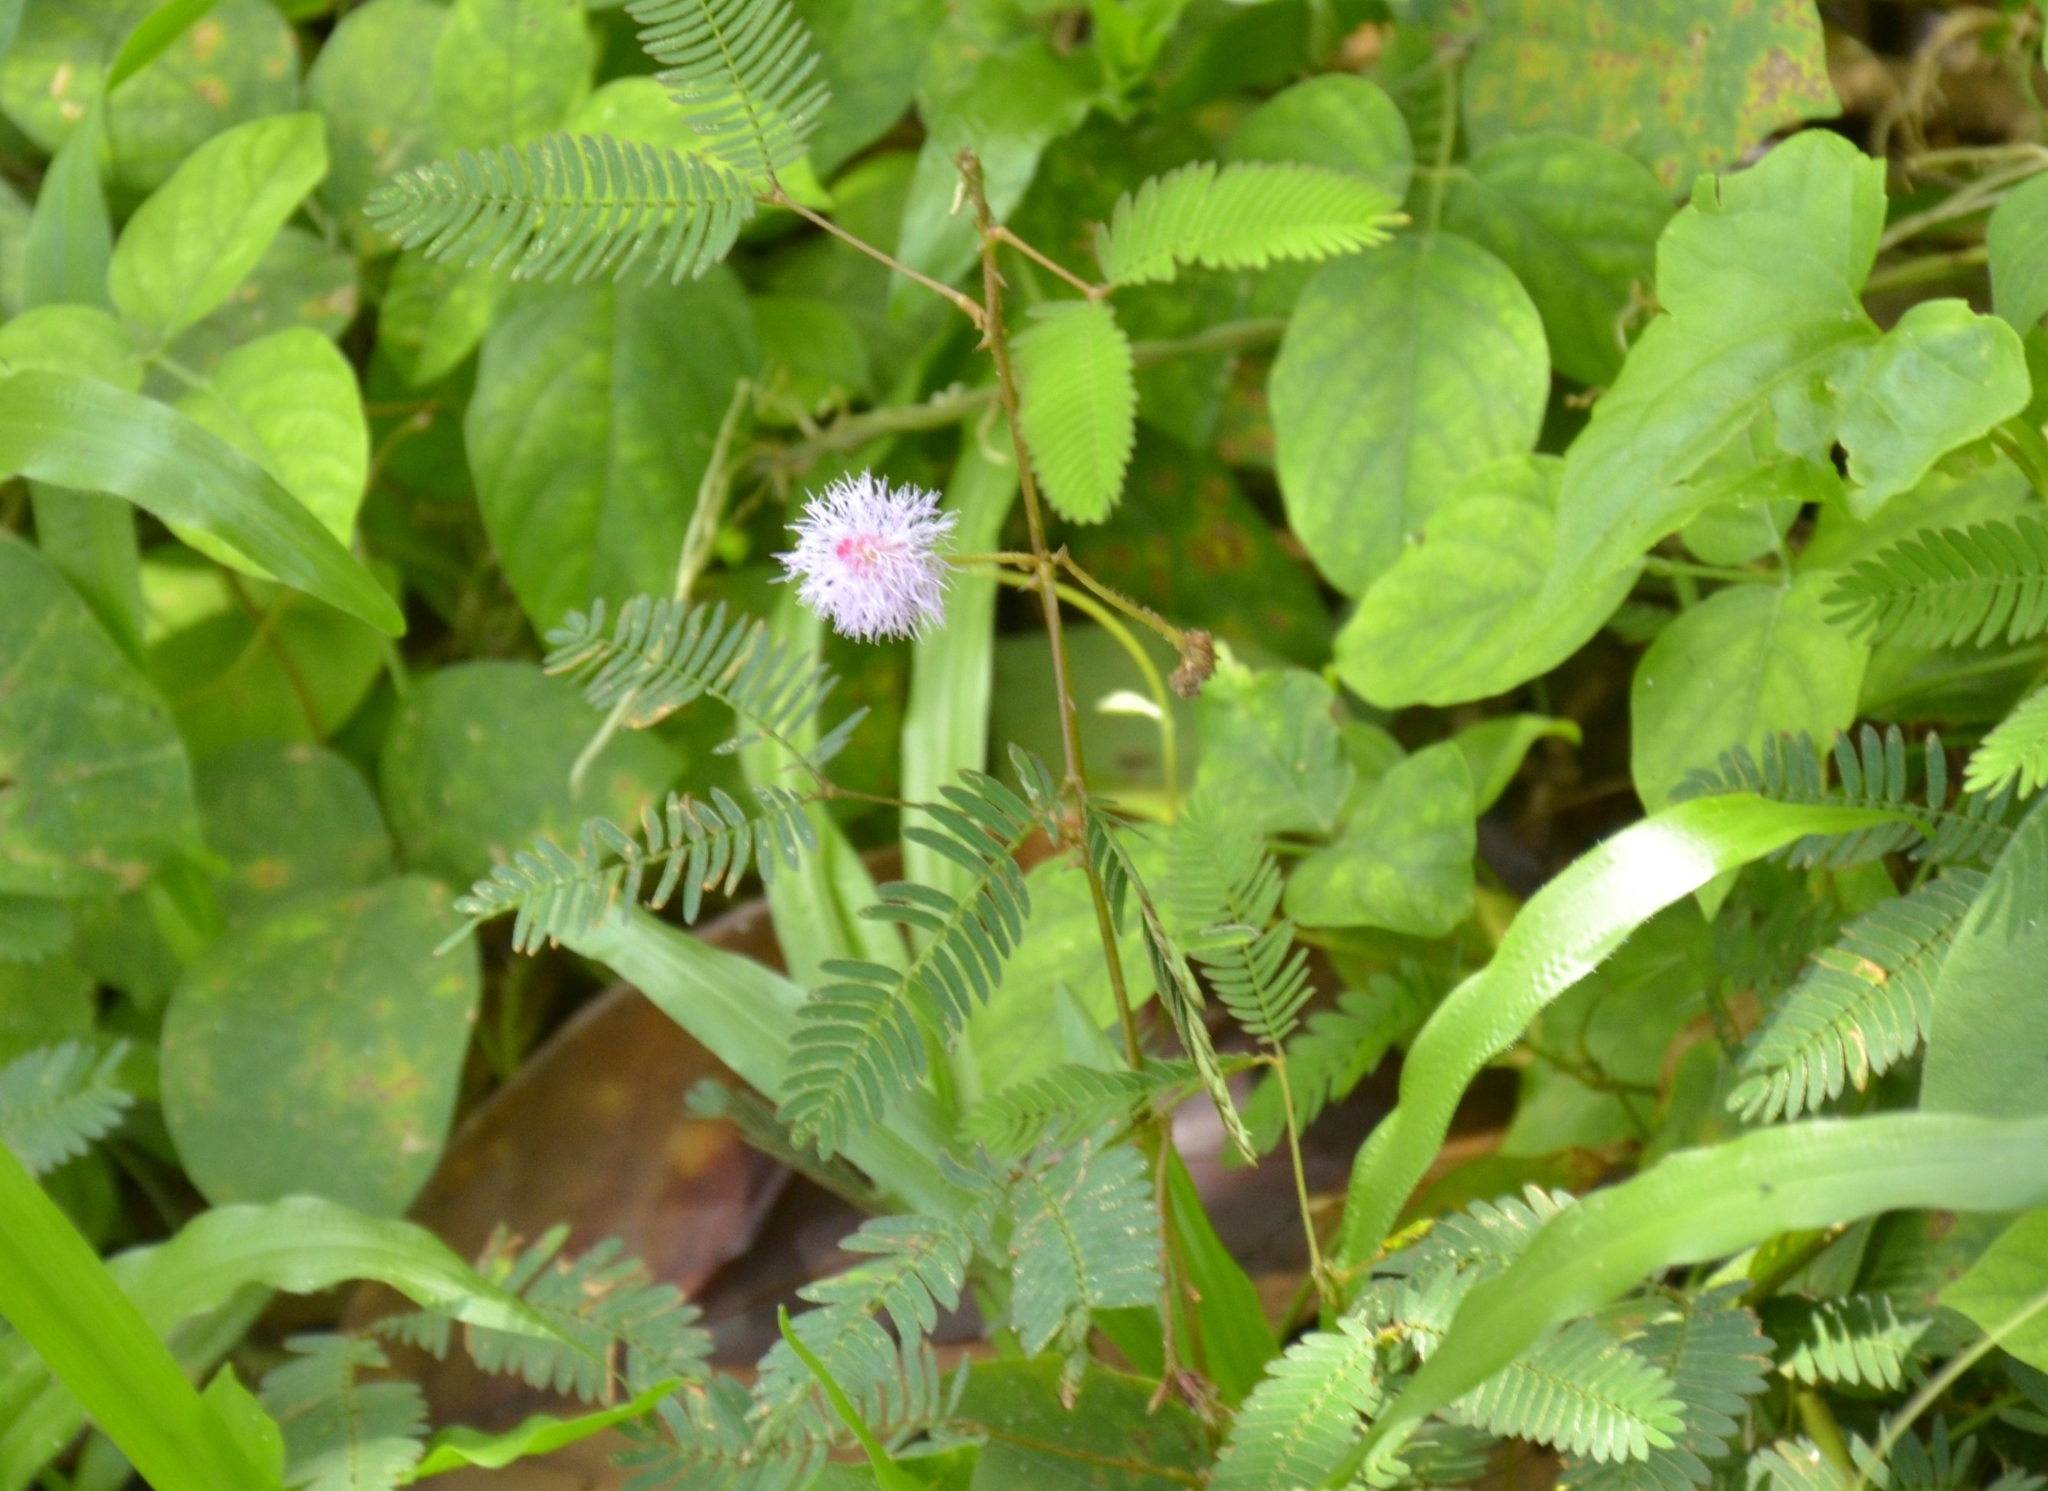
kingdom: Plantae
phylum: Tracheophyta
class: Magnoliopsida
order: Fabales
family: Fabaceae
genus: Mimosa
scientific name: Mimosa pudica
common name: Sensitive plant
